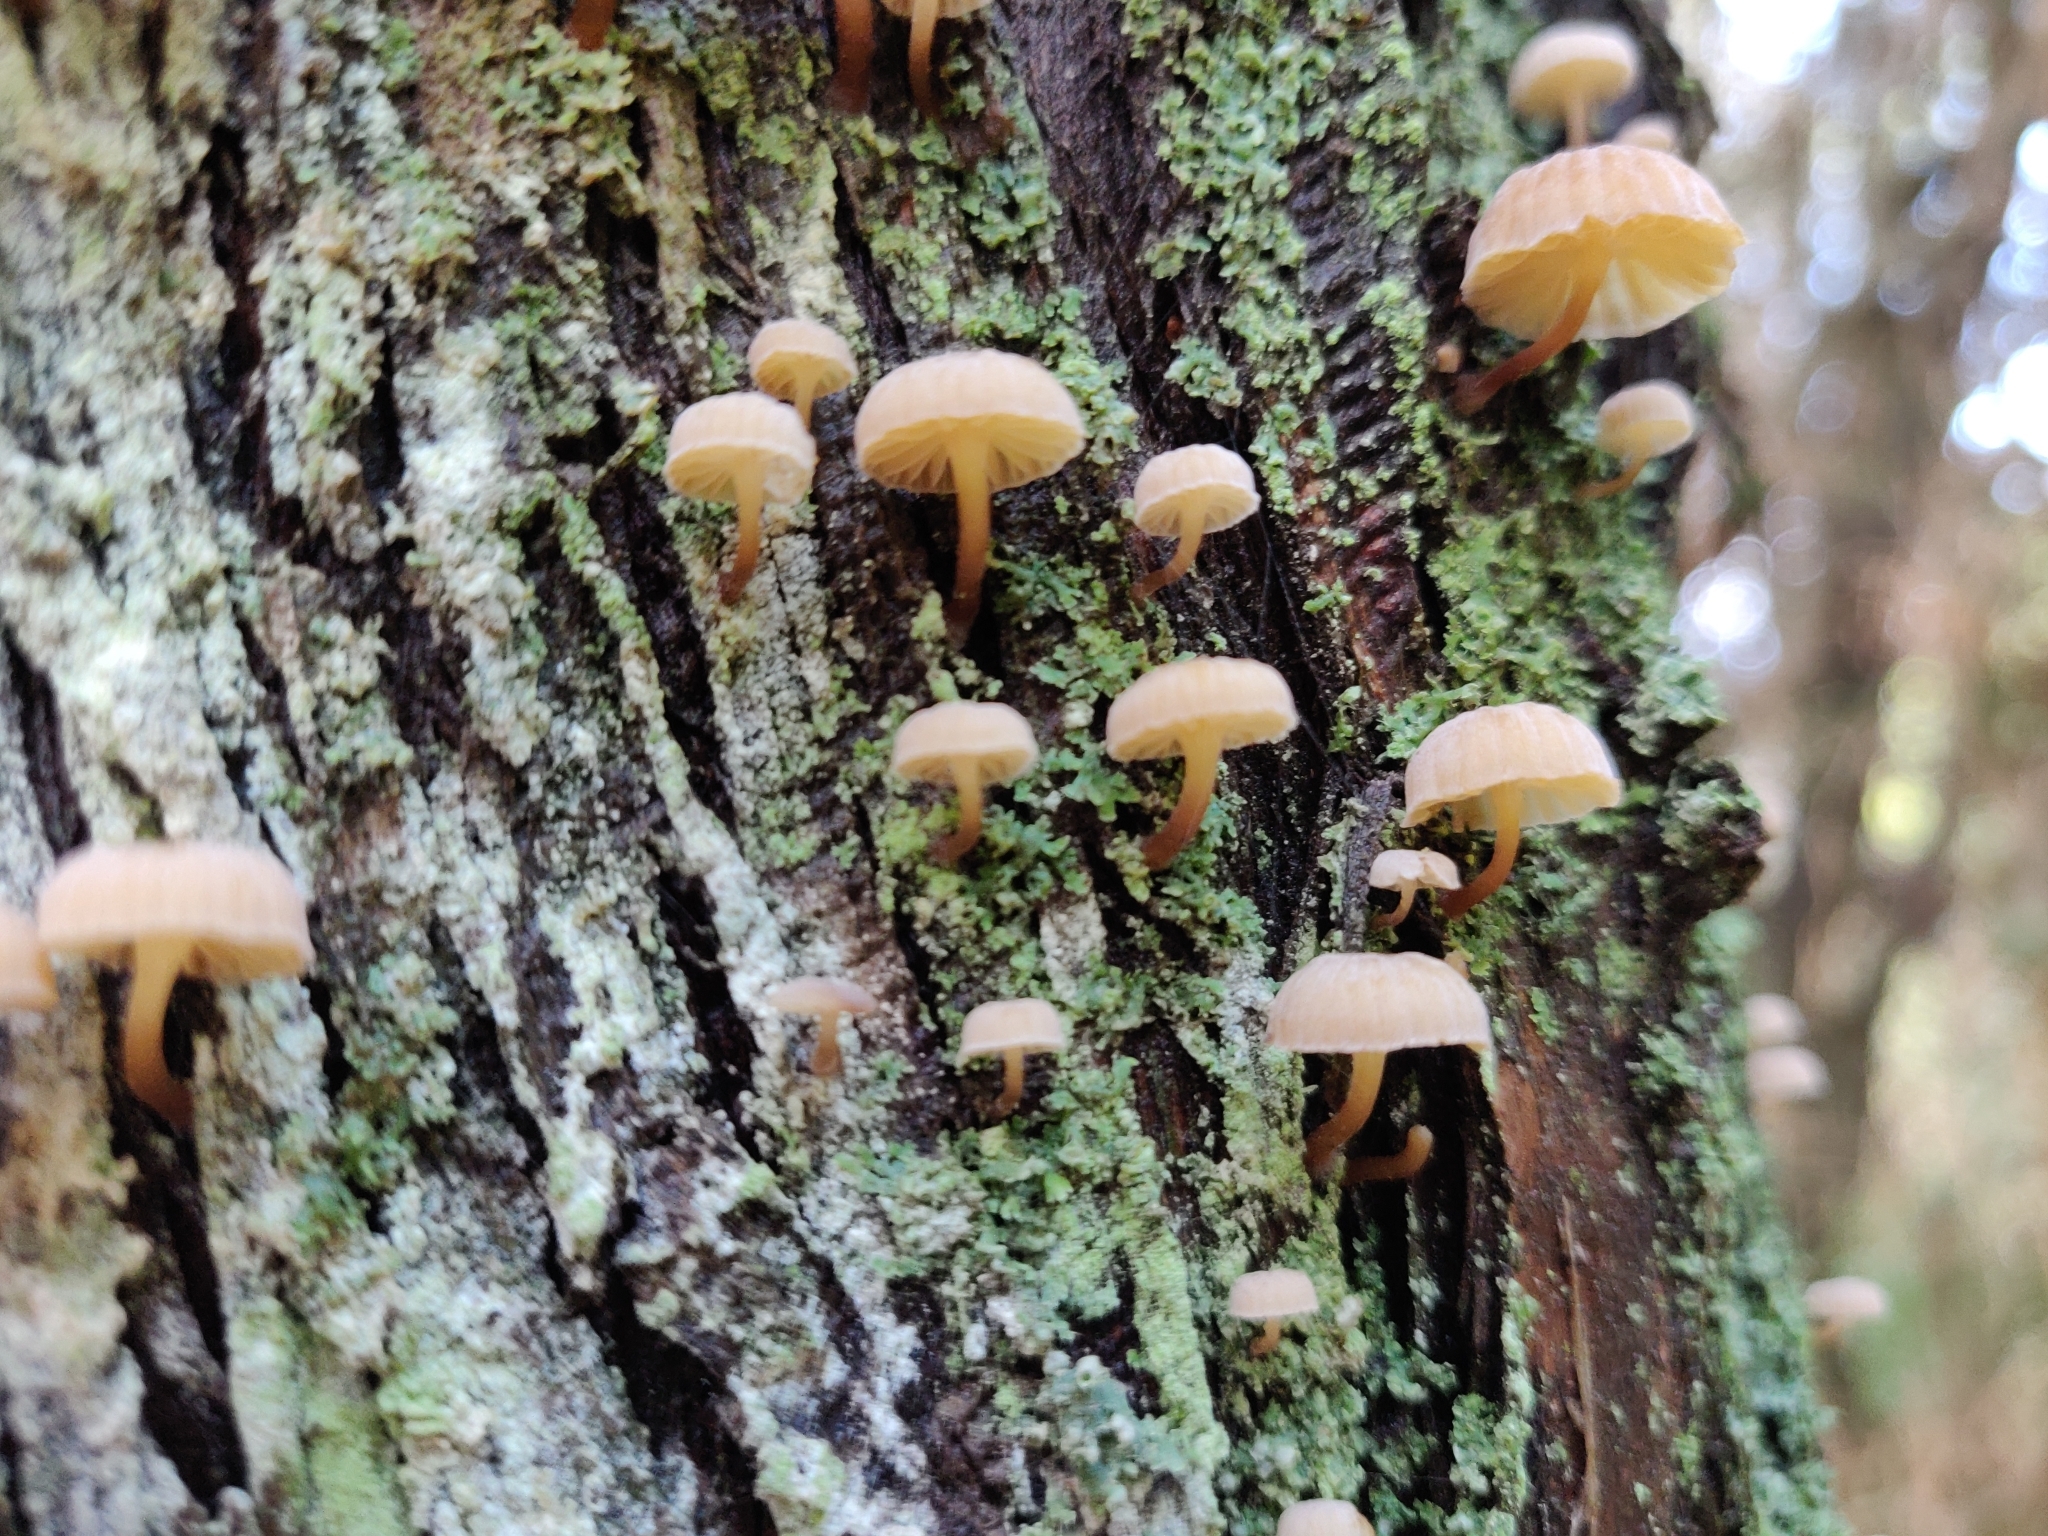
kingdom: Fungi
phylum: Basidiomycota
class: Agaricomycetes
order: Agaricales
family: Mycenaceae
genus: Mycena
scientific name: Mycena juniperina
